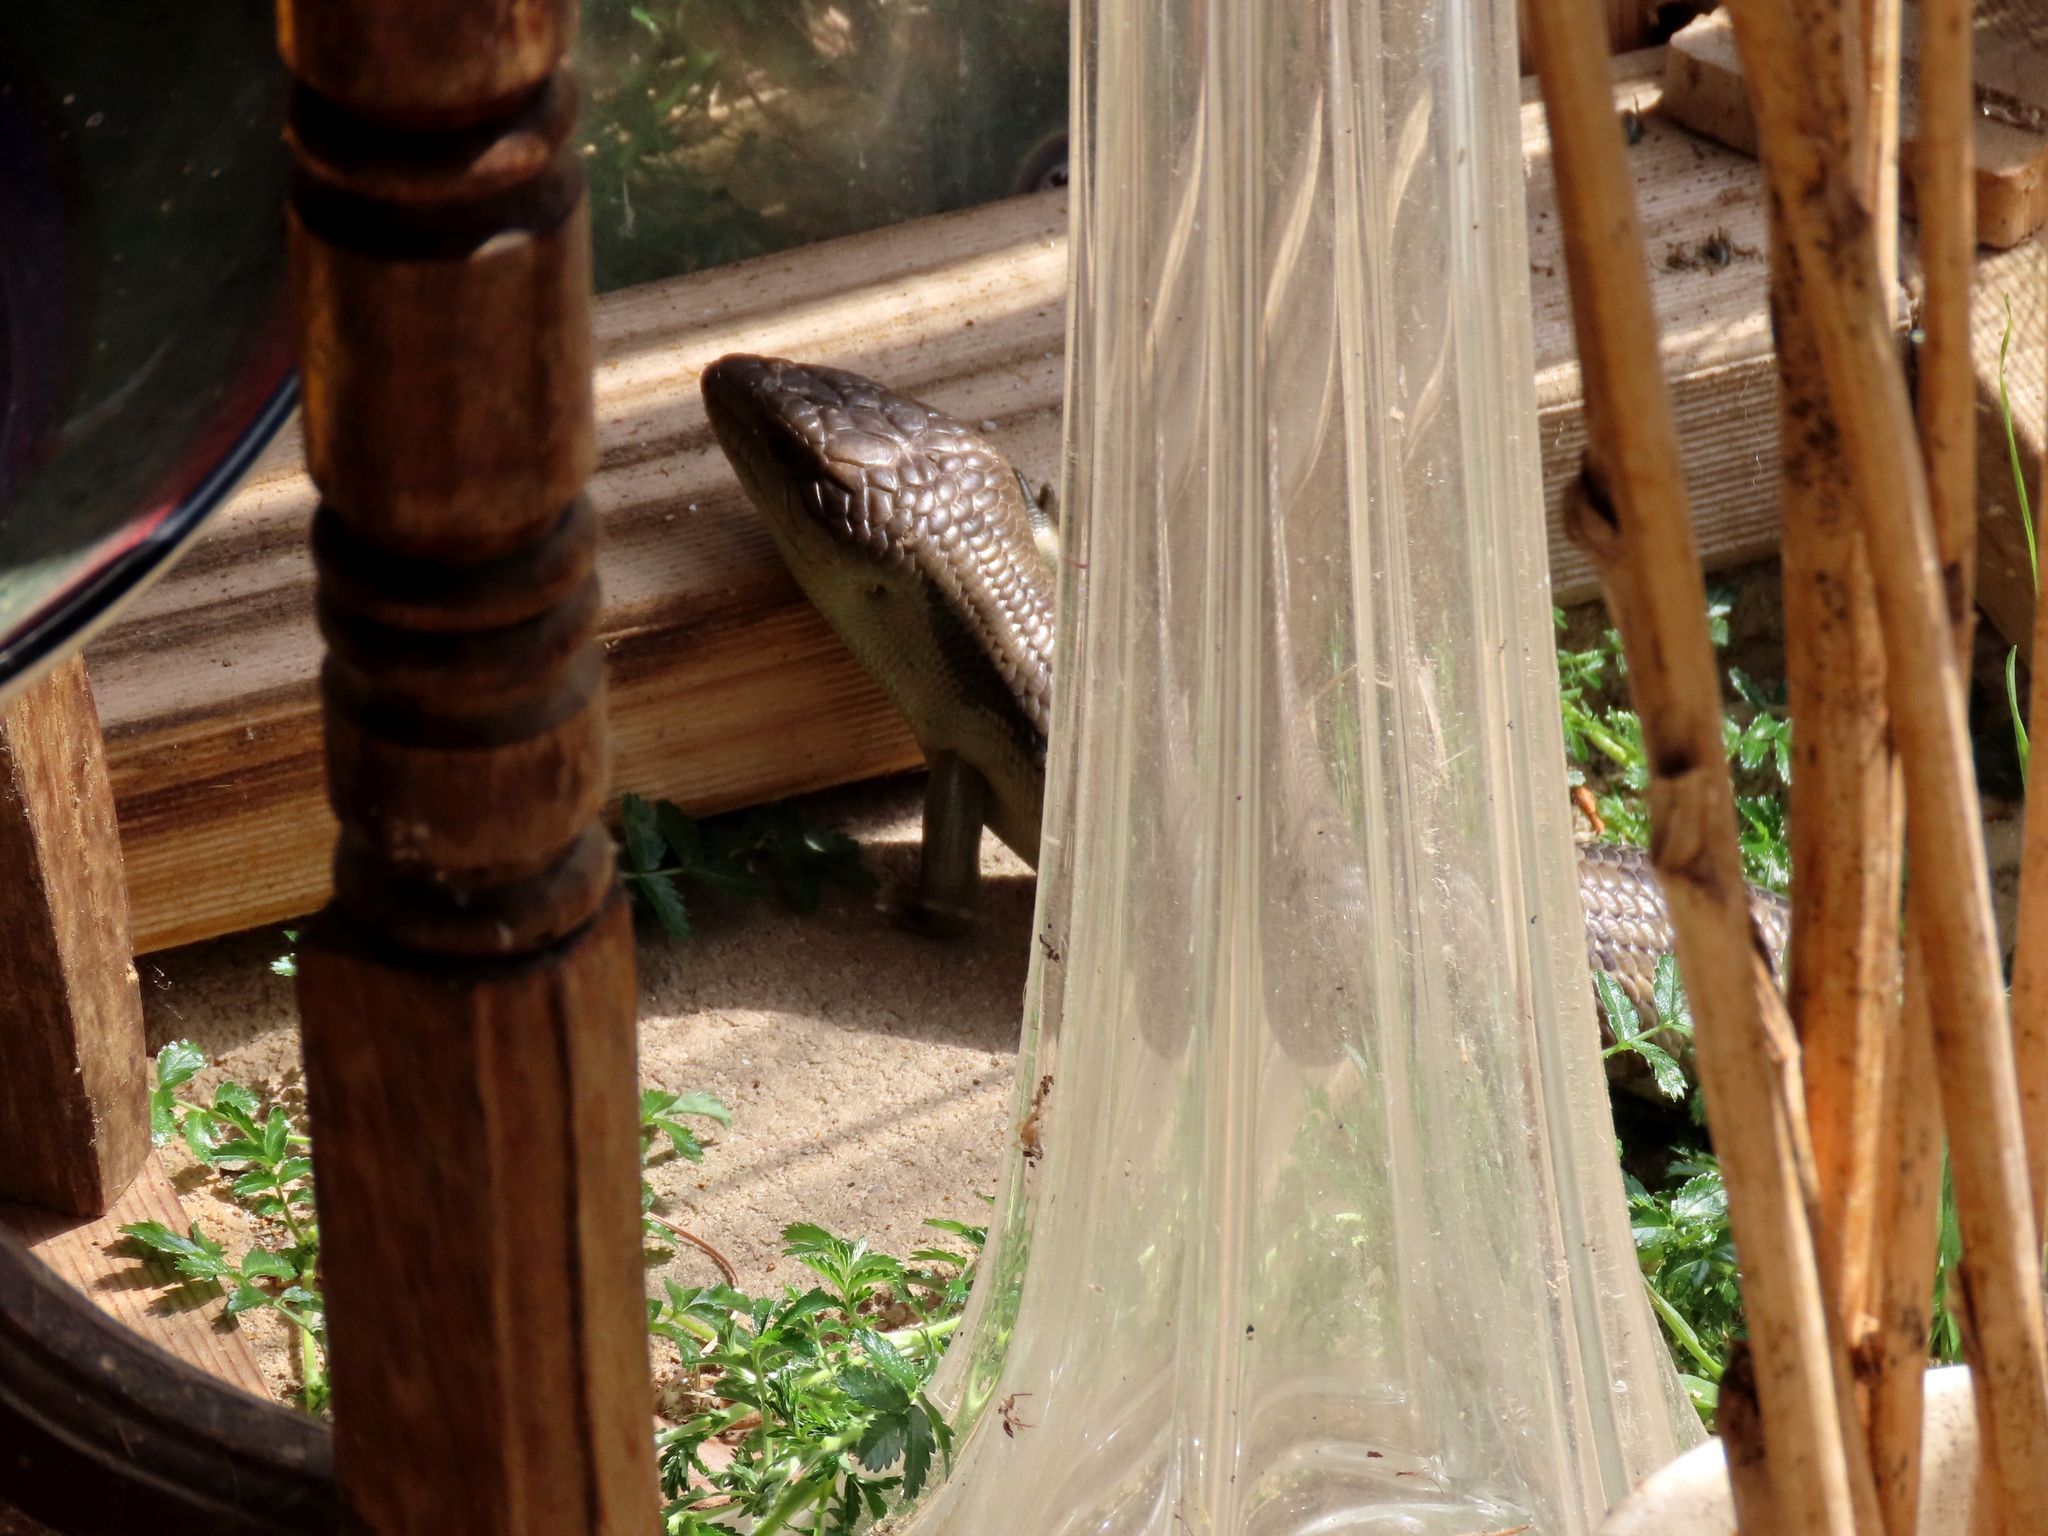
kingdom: Animalia
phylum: Chordata
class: Squamata
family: Scincidae
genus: Tiliqua
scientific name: Tiliqua scincoides
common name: Common bluetongue
